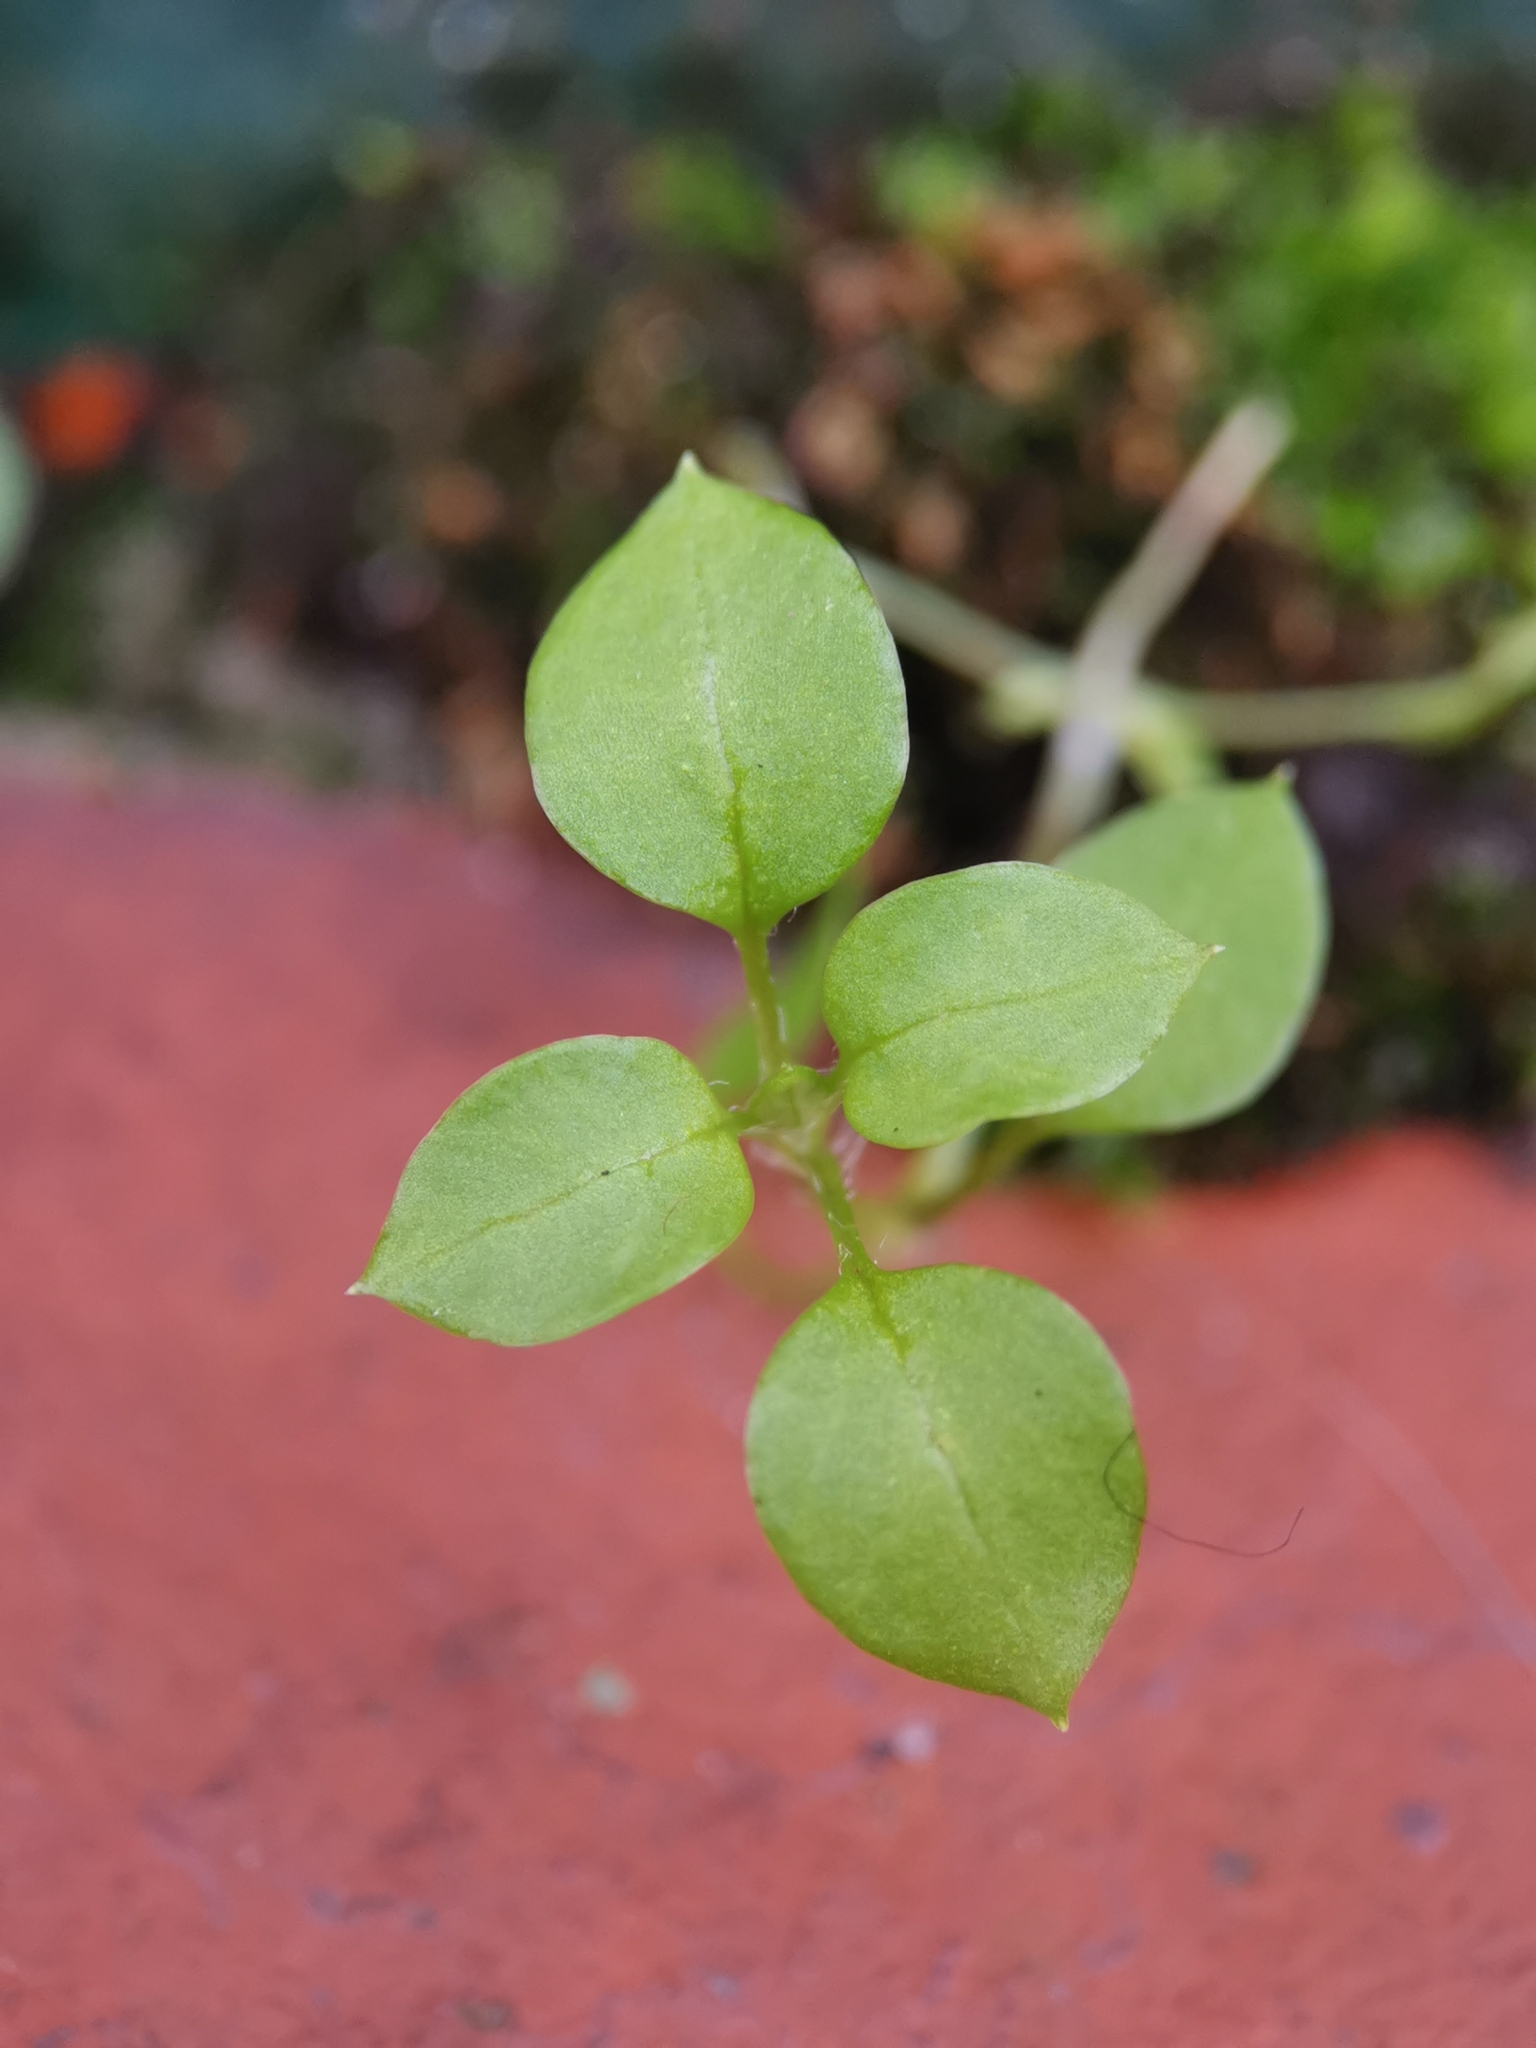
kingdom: Plantae
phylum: Tracheophyta
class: Magnoliopsida
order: Caryophyllales
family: Caryophyllaceae
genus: Stellaria
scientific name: Stellaria media
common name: Common chickweed
